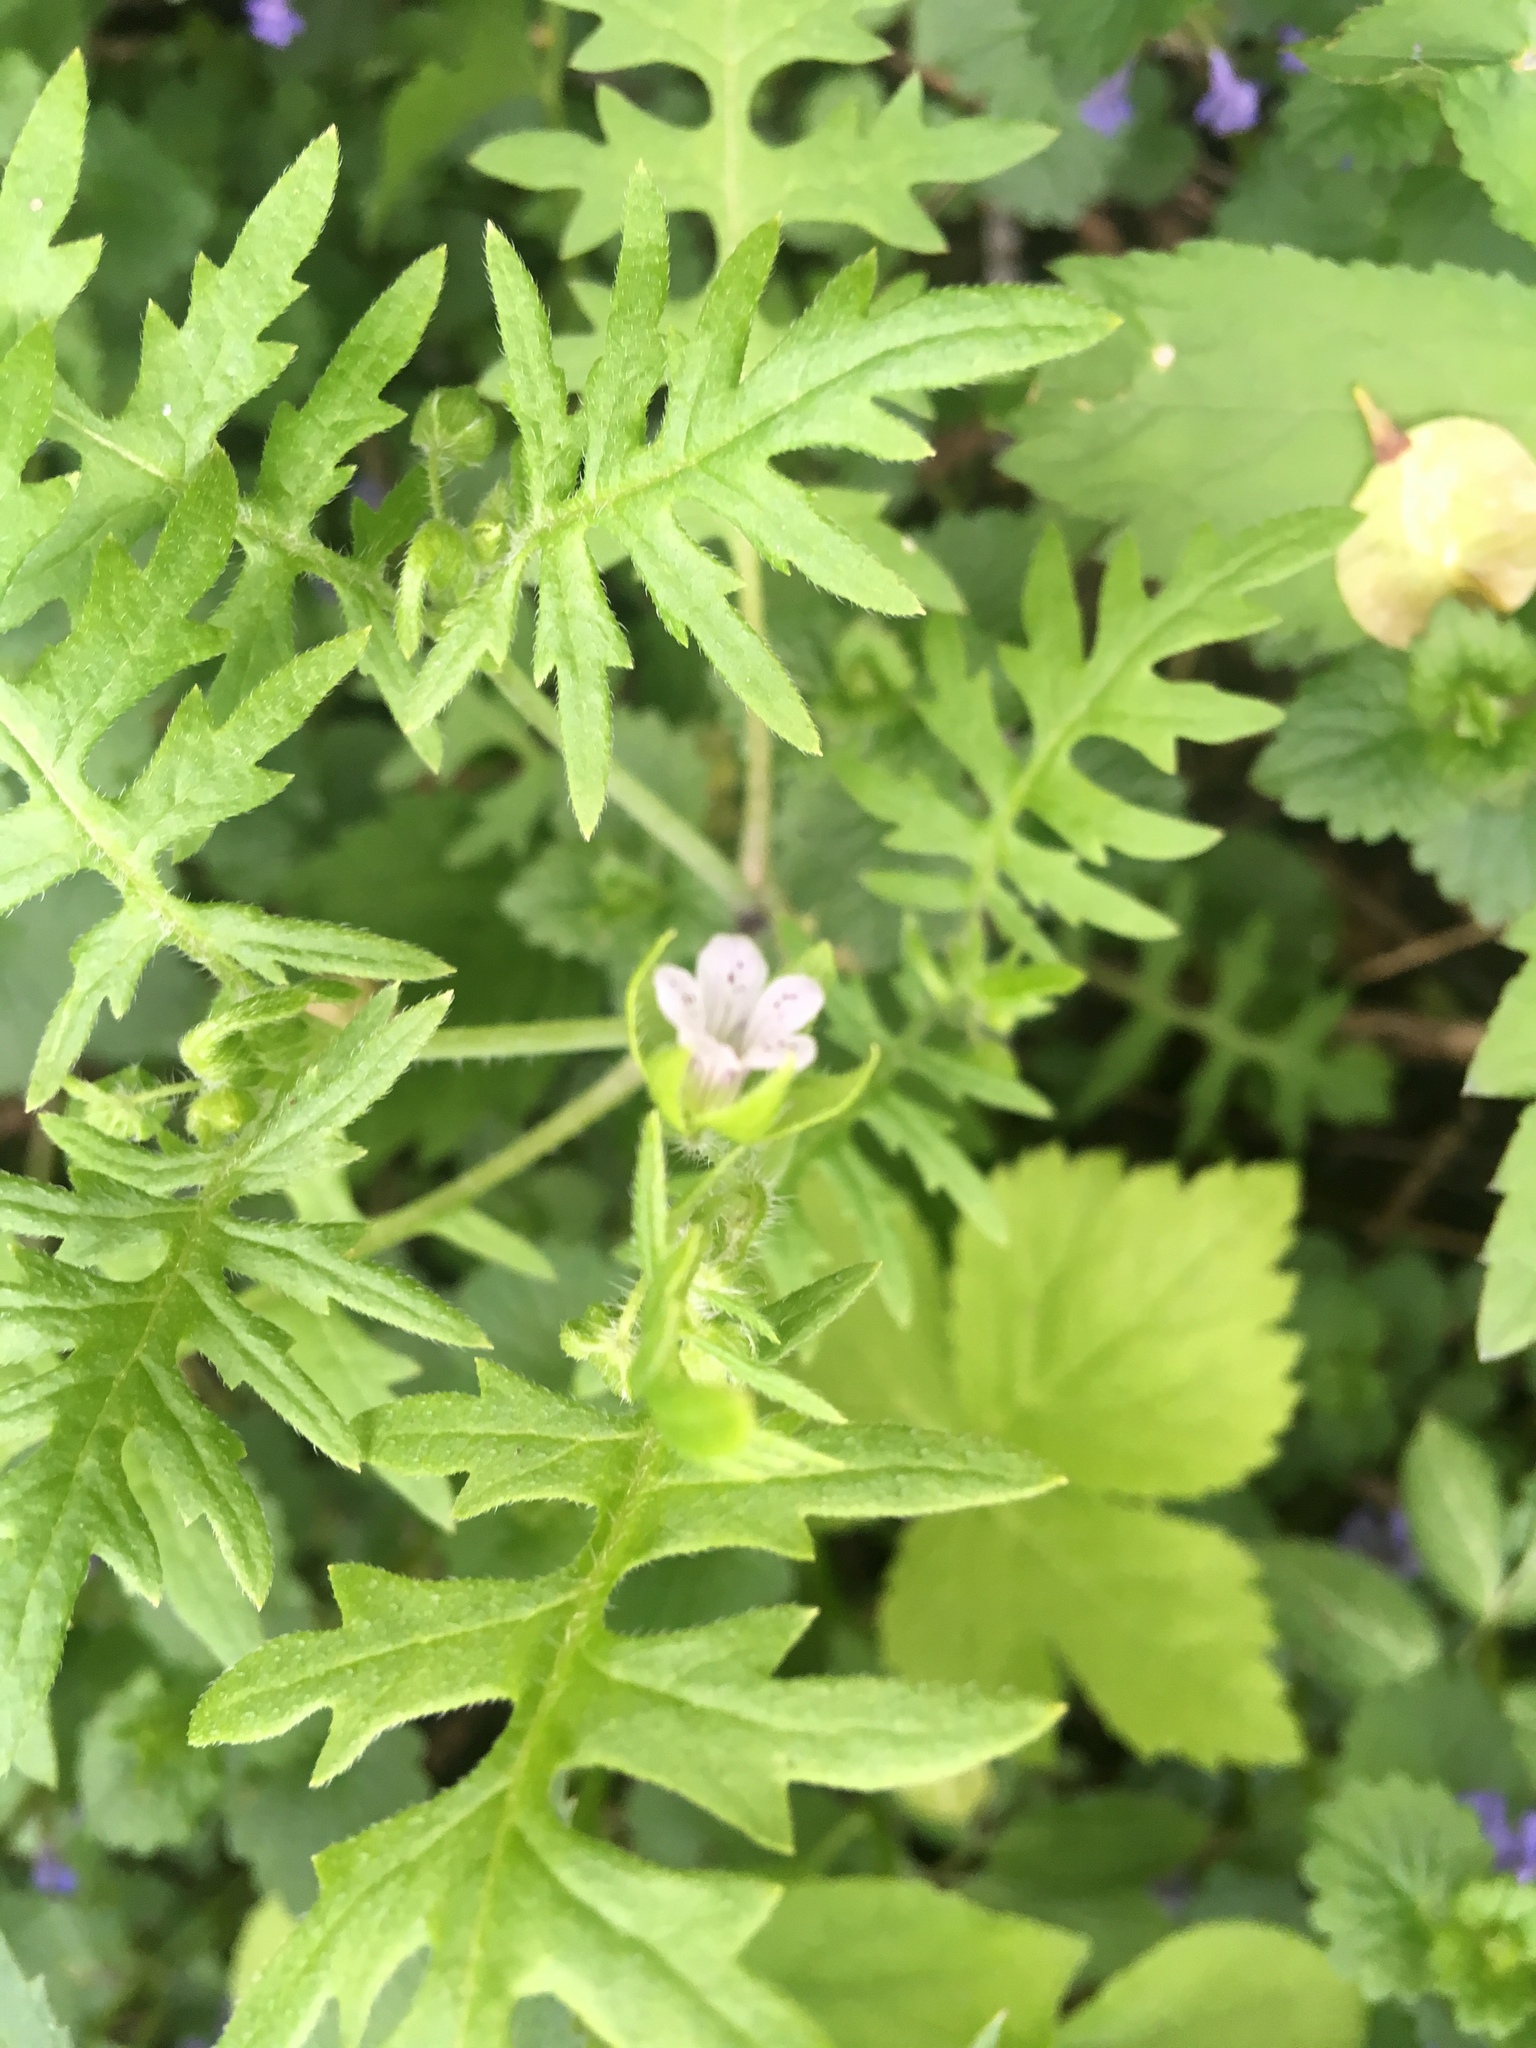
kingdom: Plantae
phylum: Tracheophyta
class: Magnoliopsida
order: Boraginales
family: Hydrophyllaceae
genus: Ellisia
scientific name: Ellisia nyctelea
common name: Aunt lucy
